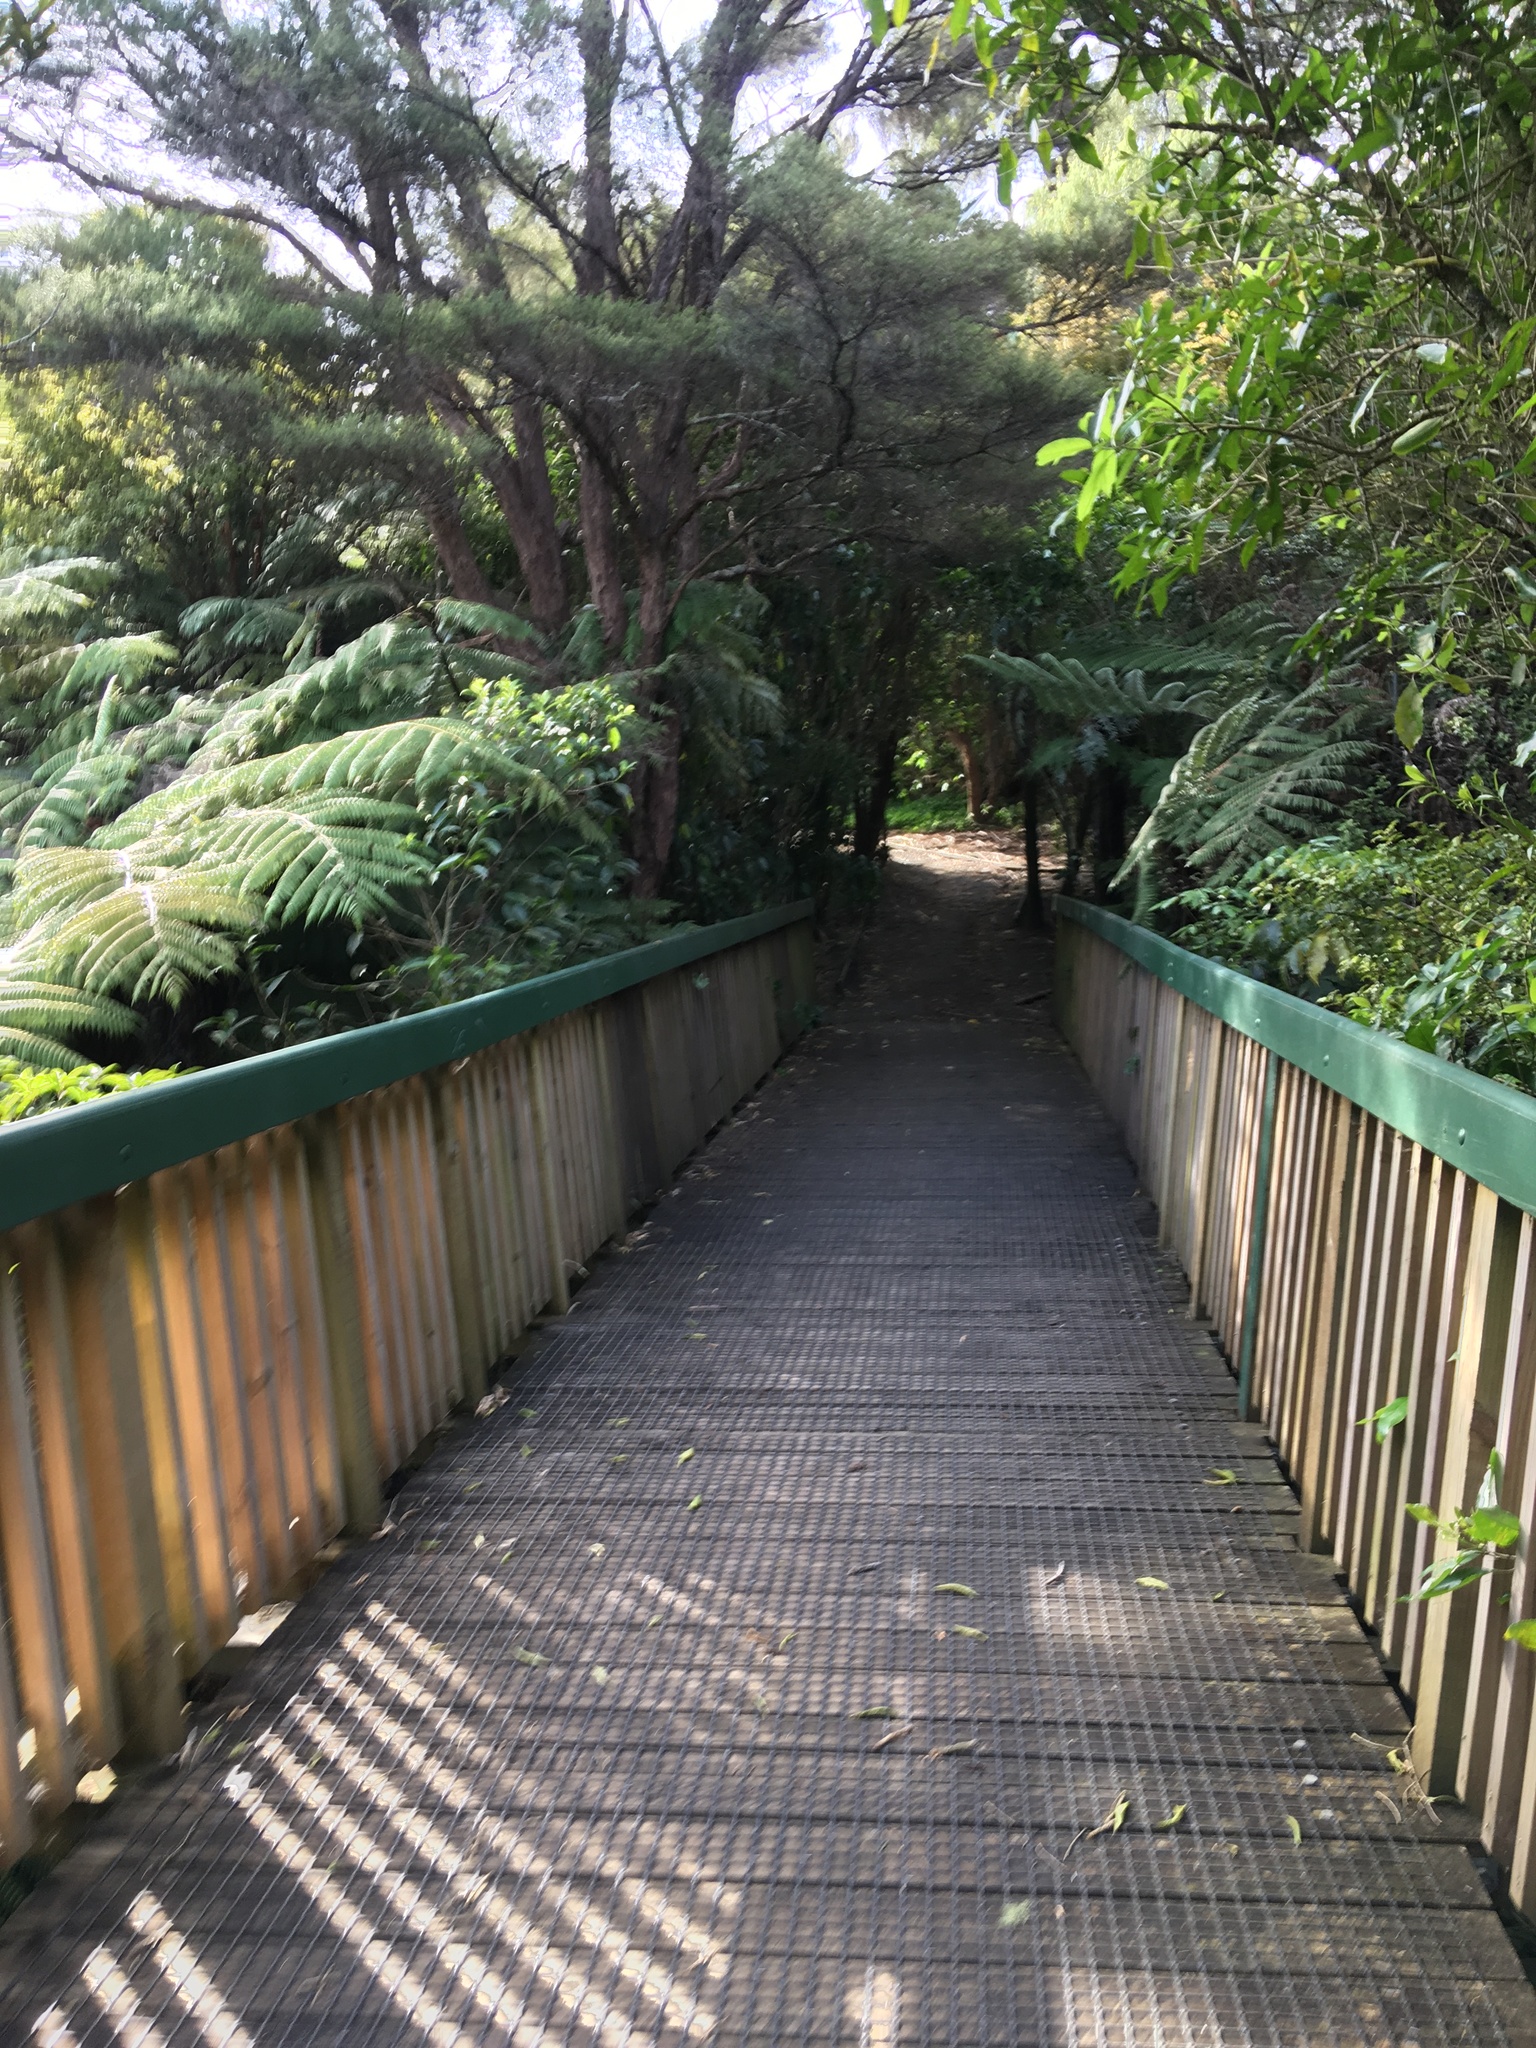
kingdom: Plantae
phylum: Tracheophyta
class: Magnoliopsida
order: Myrtales
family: Myrtaceae
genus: Kunzea
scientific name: Kunzea robusta
